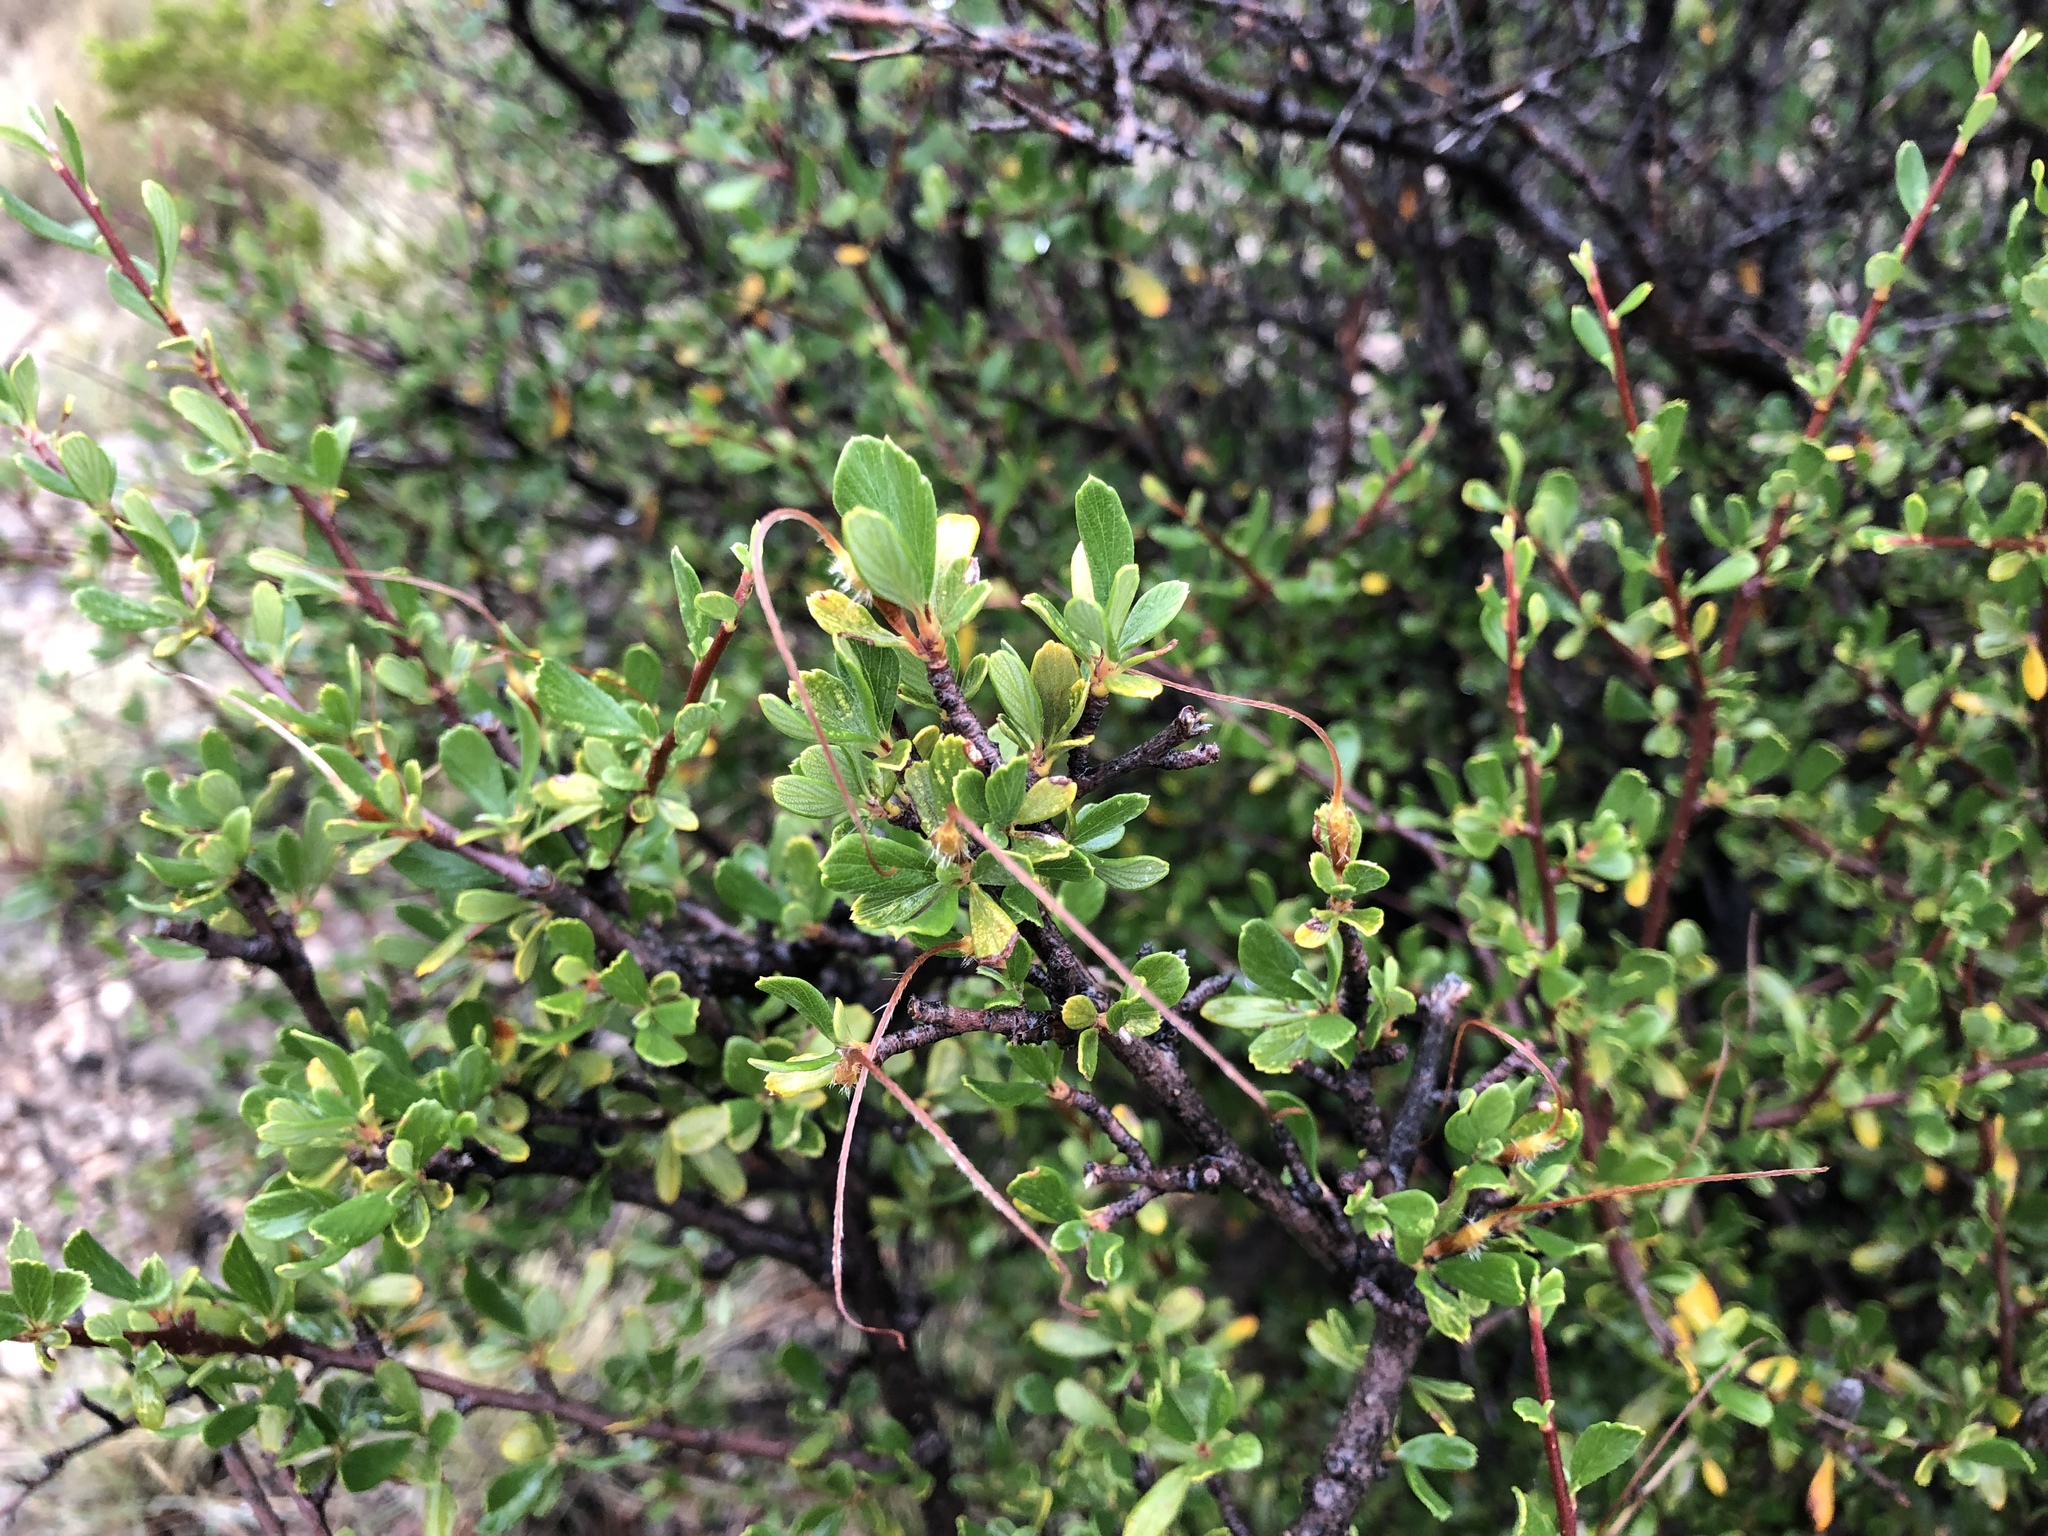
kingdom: Plantae
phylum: Tracheophyta
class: Magnoliopsida
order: Rosales
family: Rosaceae
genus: Cercocarpus
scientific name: Cercocarpus breviflorus
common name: Wright's mountain-mahogany
